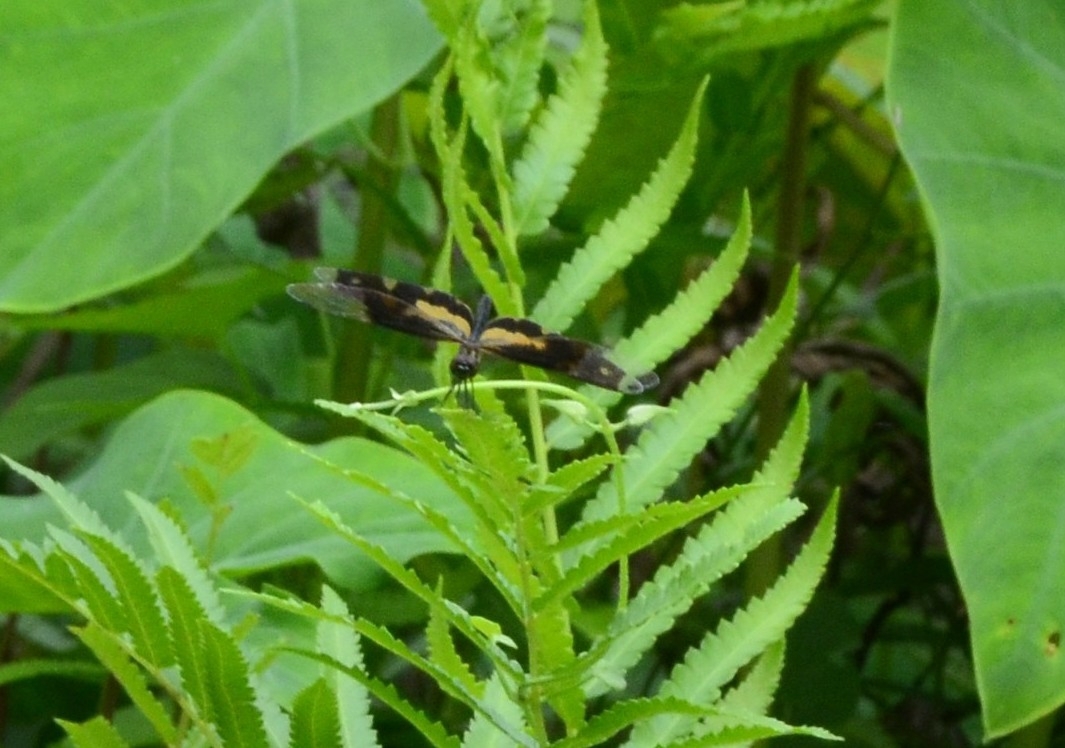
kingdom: Animalia
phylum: Arthropoda
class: Insecta
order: Odonata
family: Libellulidae
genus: Rhyothemis
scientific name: Rhyothemis variegata
